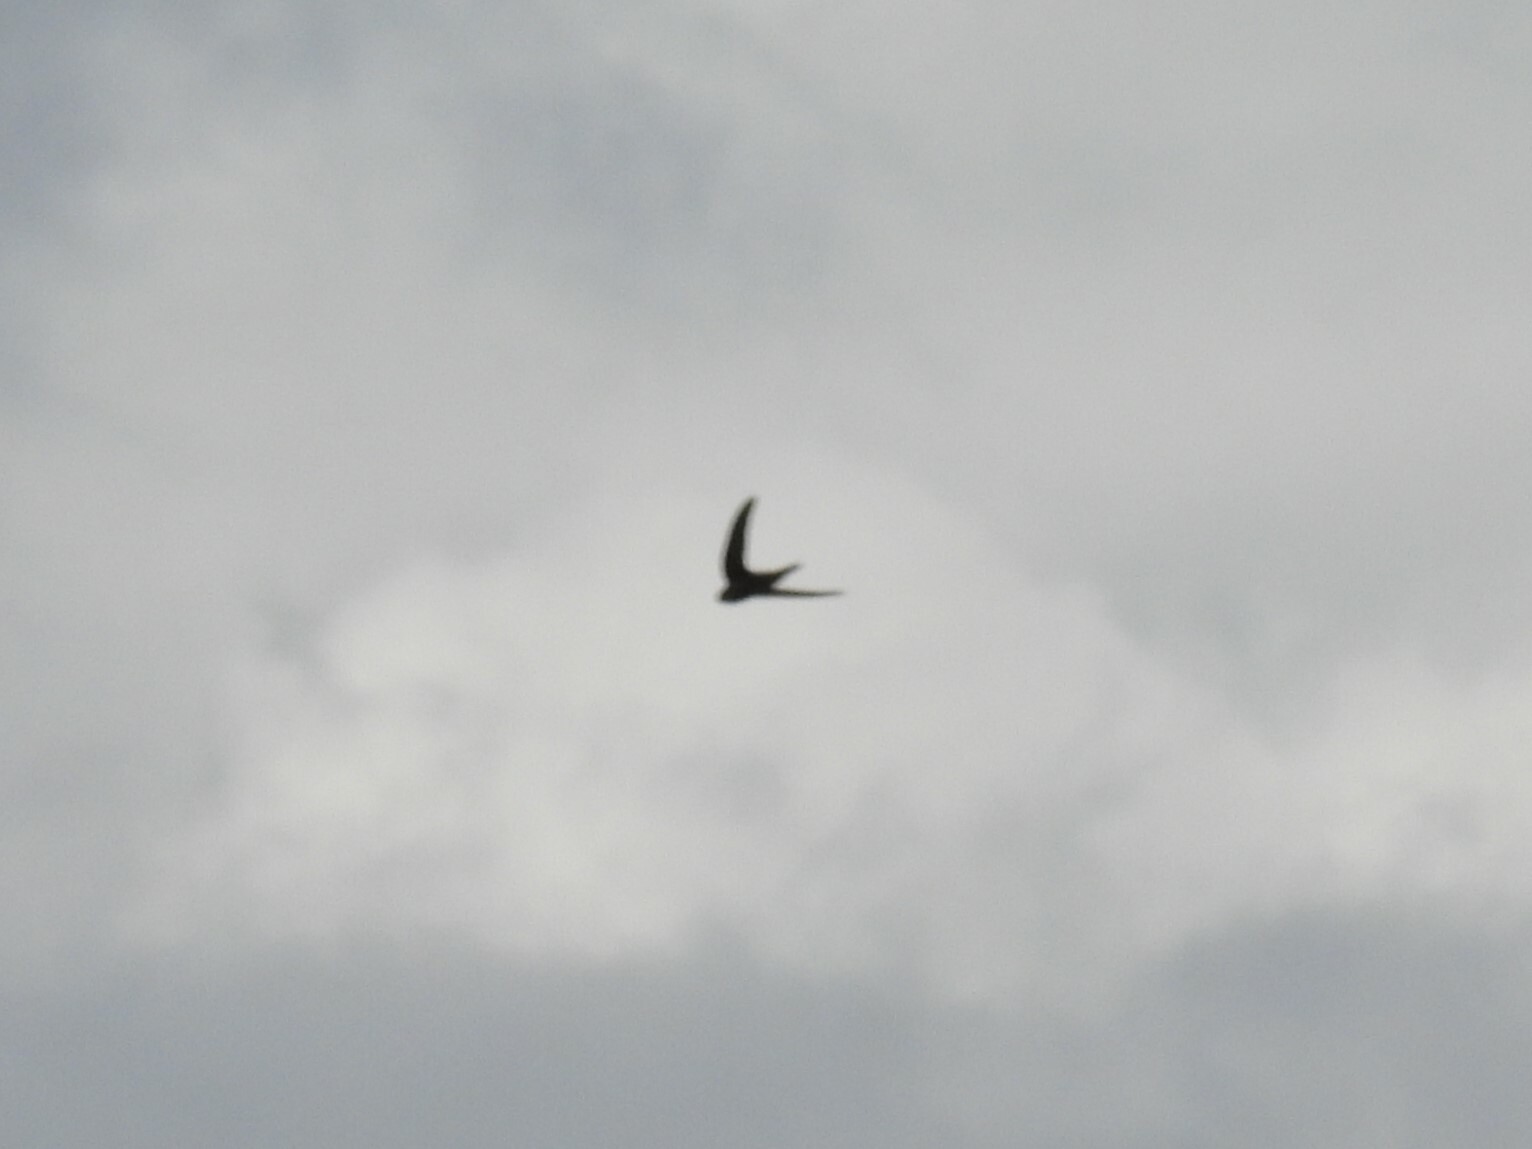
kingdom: Animalia
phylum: Chordata
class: Aves
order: Apodiformes
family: Apodidae
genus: Apus
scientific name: Apus apus
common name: Common swift
